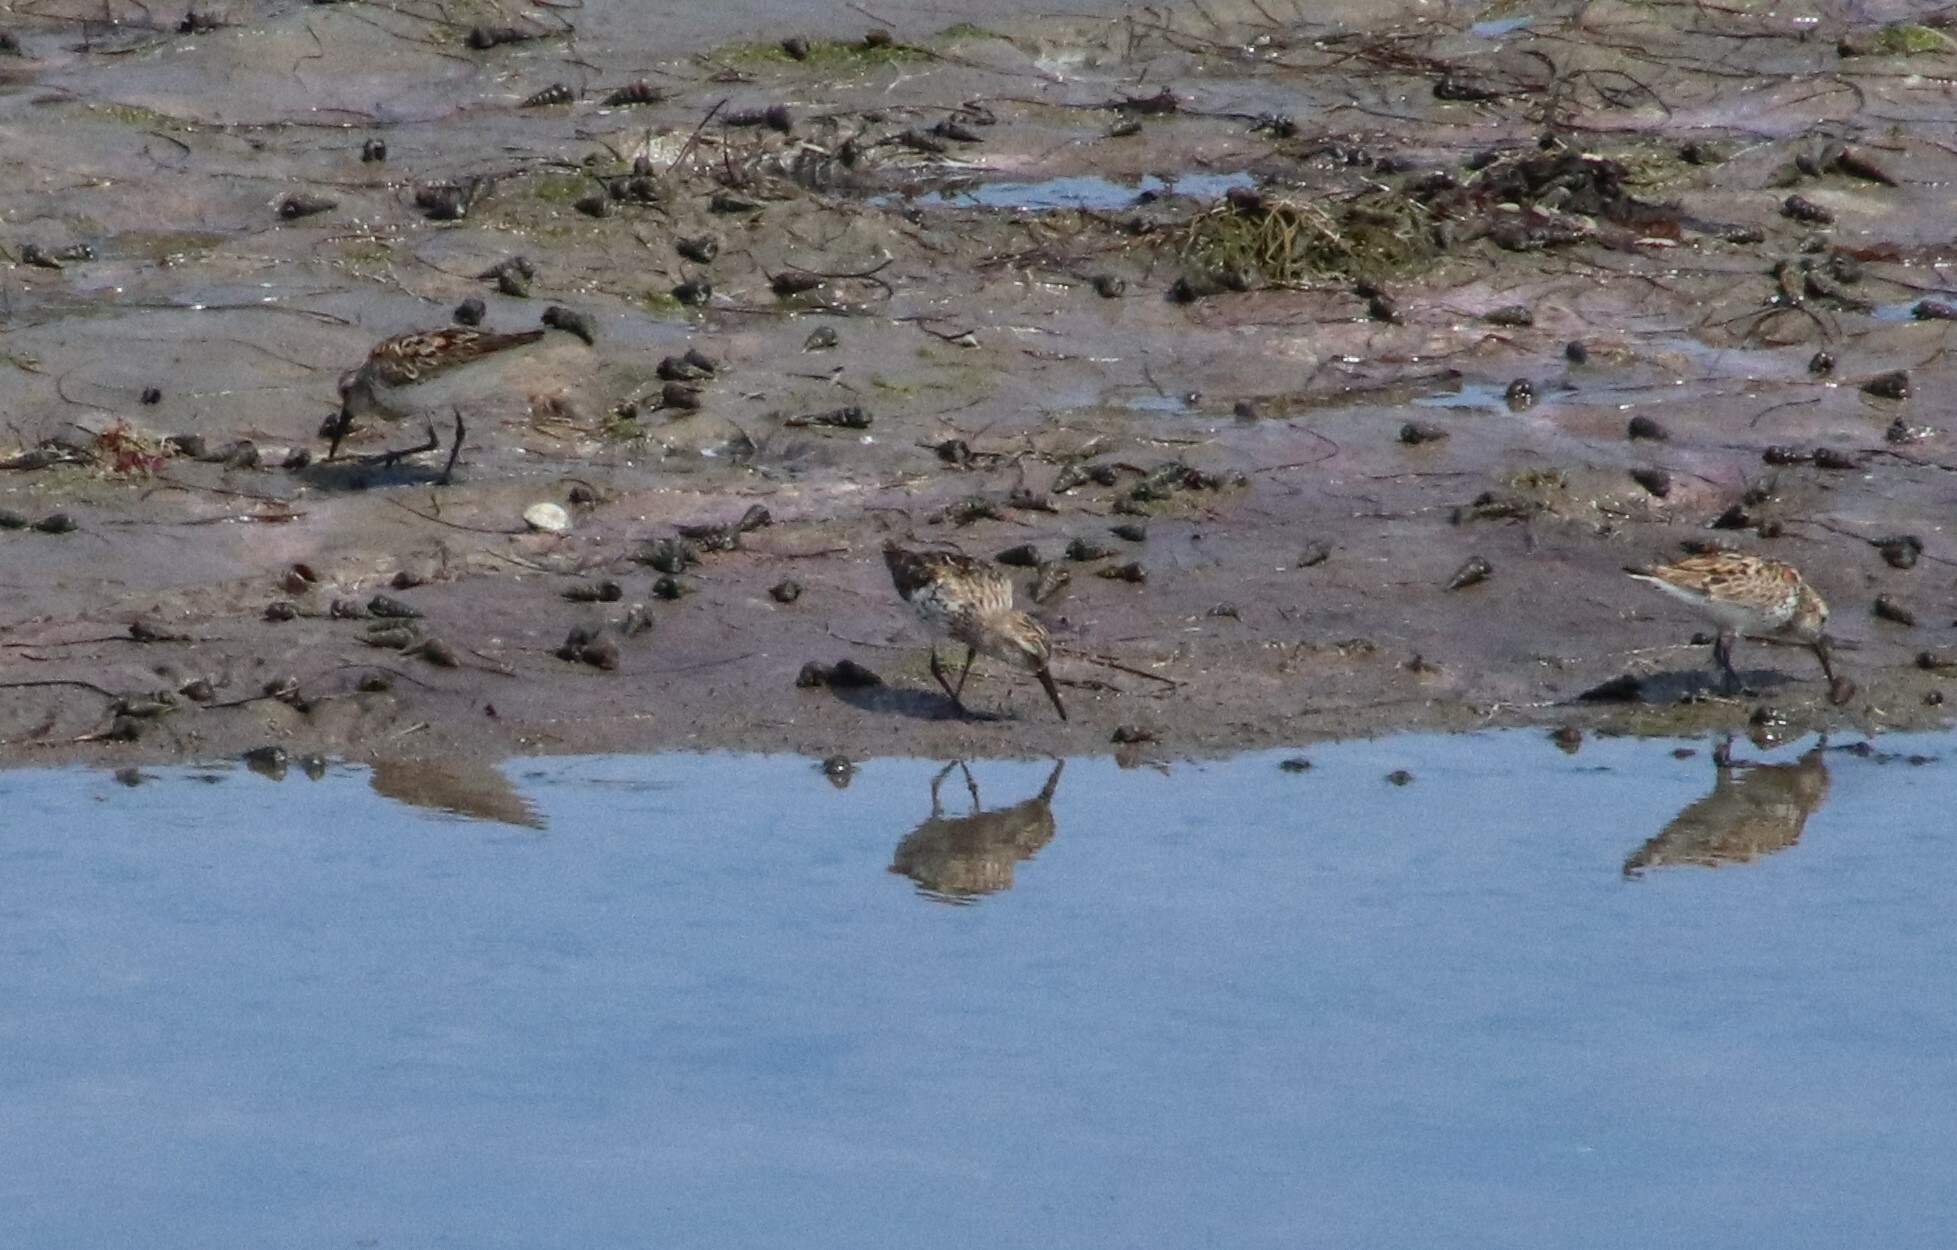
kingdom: Animalia
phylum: Chordata
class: Aves
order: Charadriiformes
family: Scolopacidae
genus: Calidris
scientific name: Calidris mauri
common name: Western sandpiper
